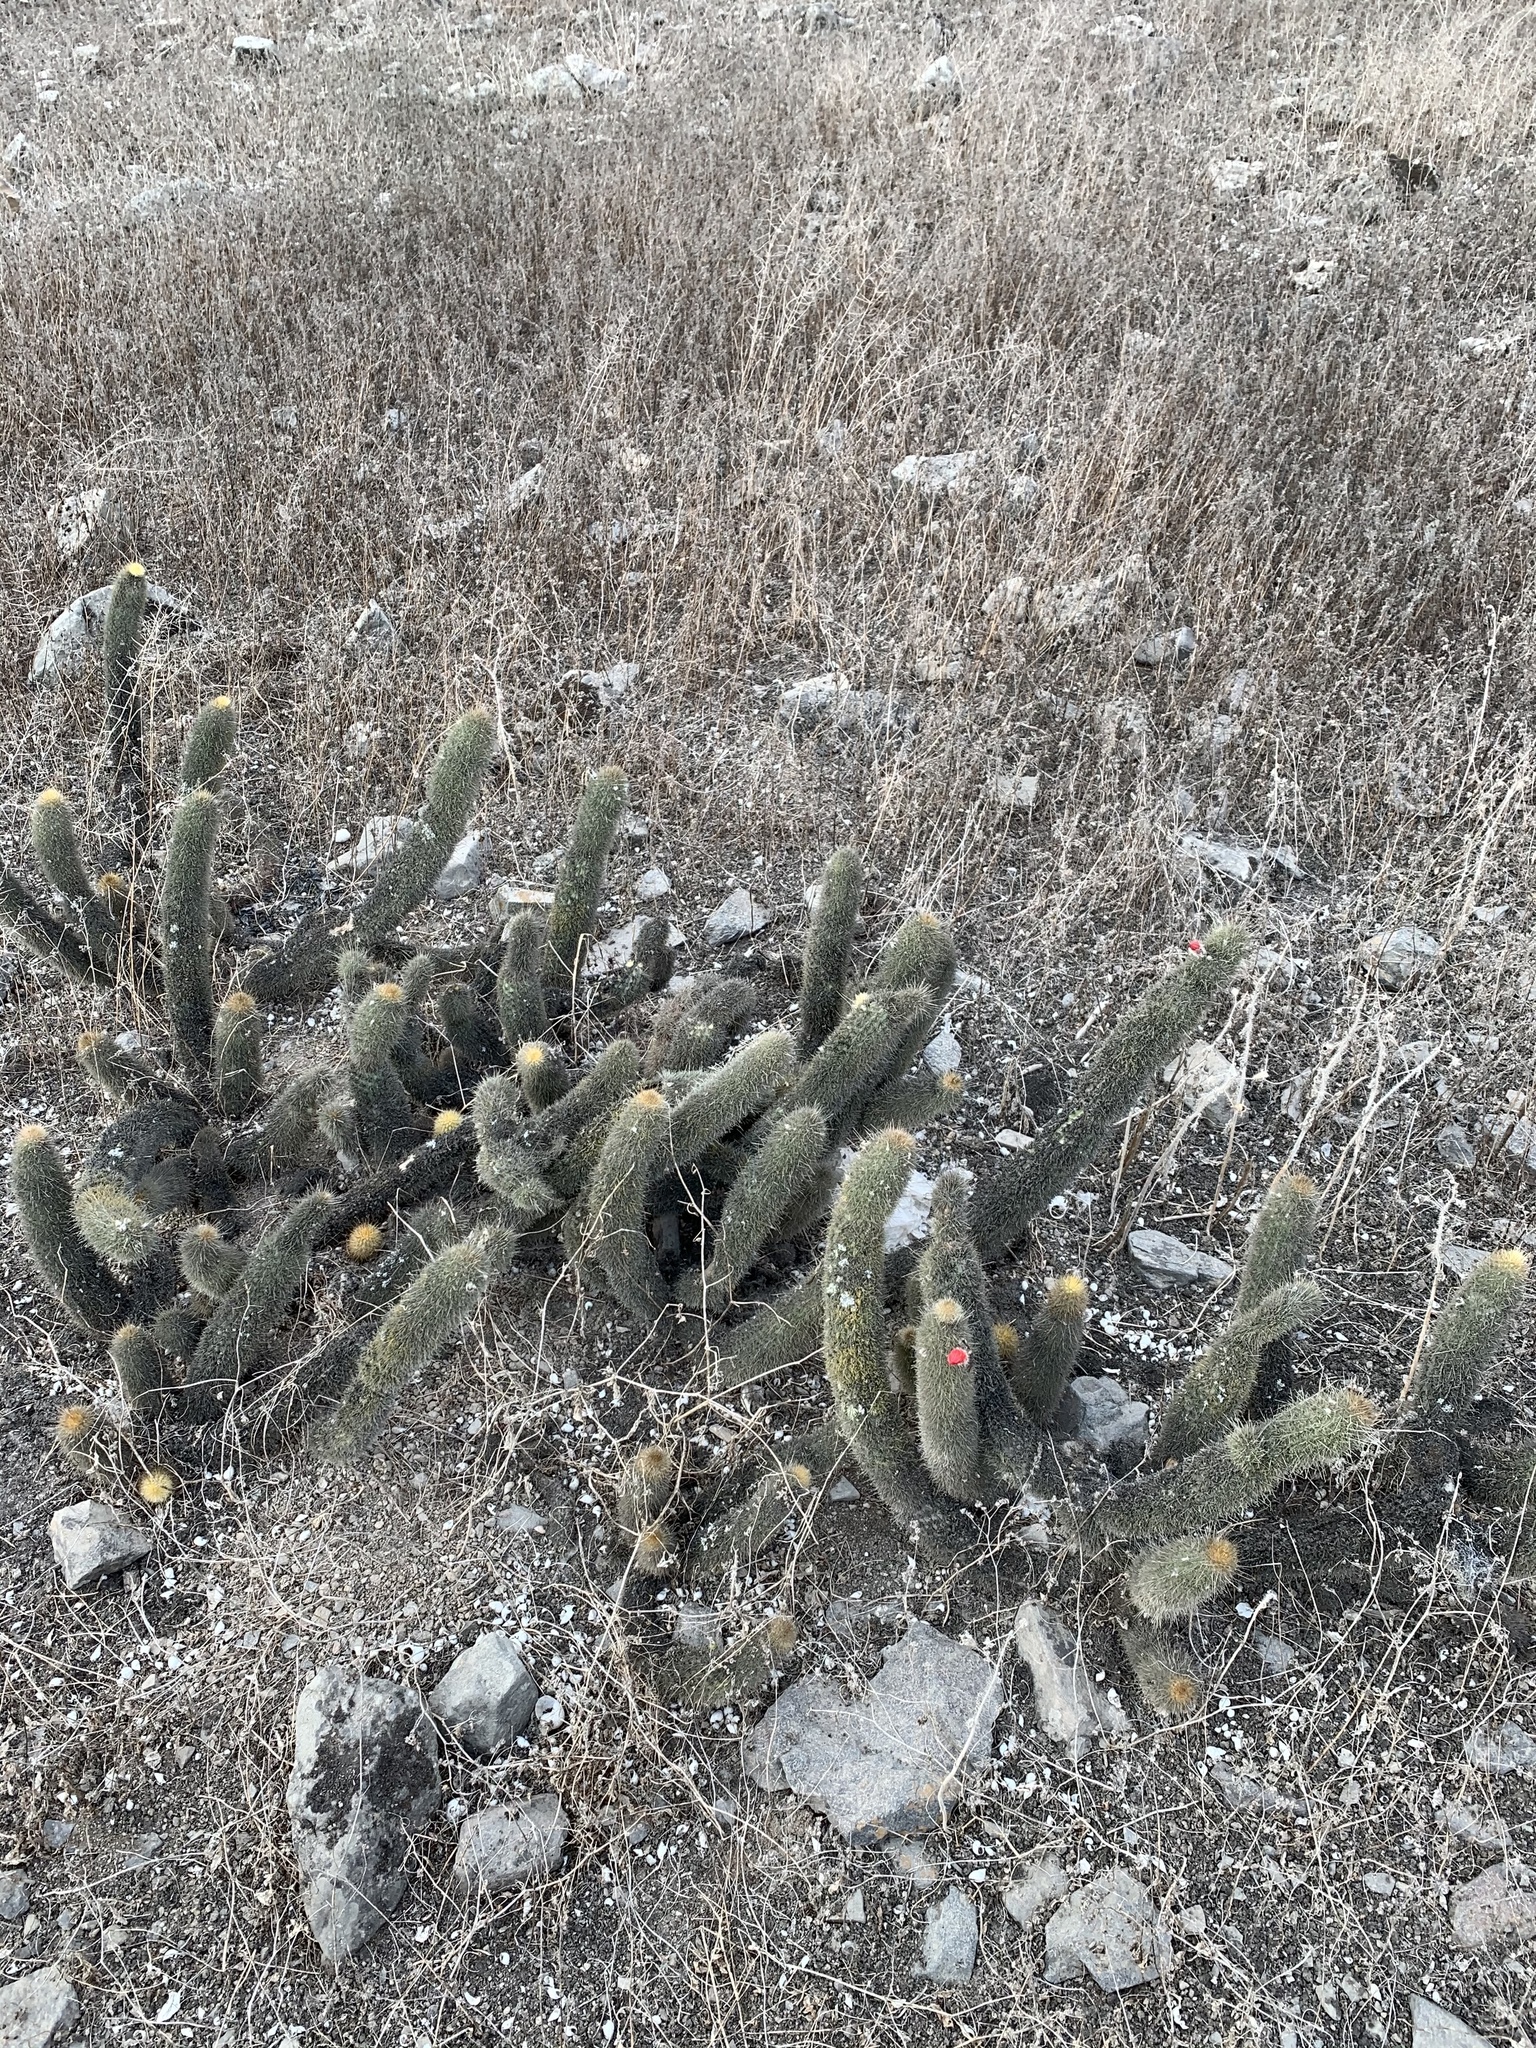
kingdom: Plantae
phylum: Tracheophyta
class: Magnoliopsida
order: Caryophyllales
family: Cactaceae
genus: Borzicactus
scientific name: Borzicactus acanthurus
